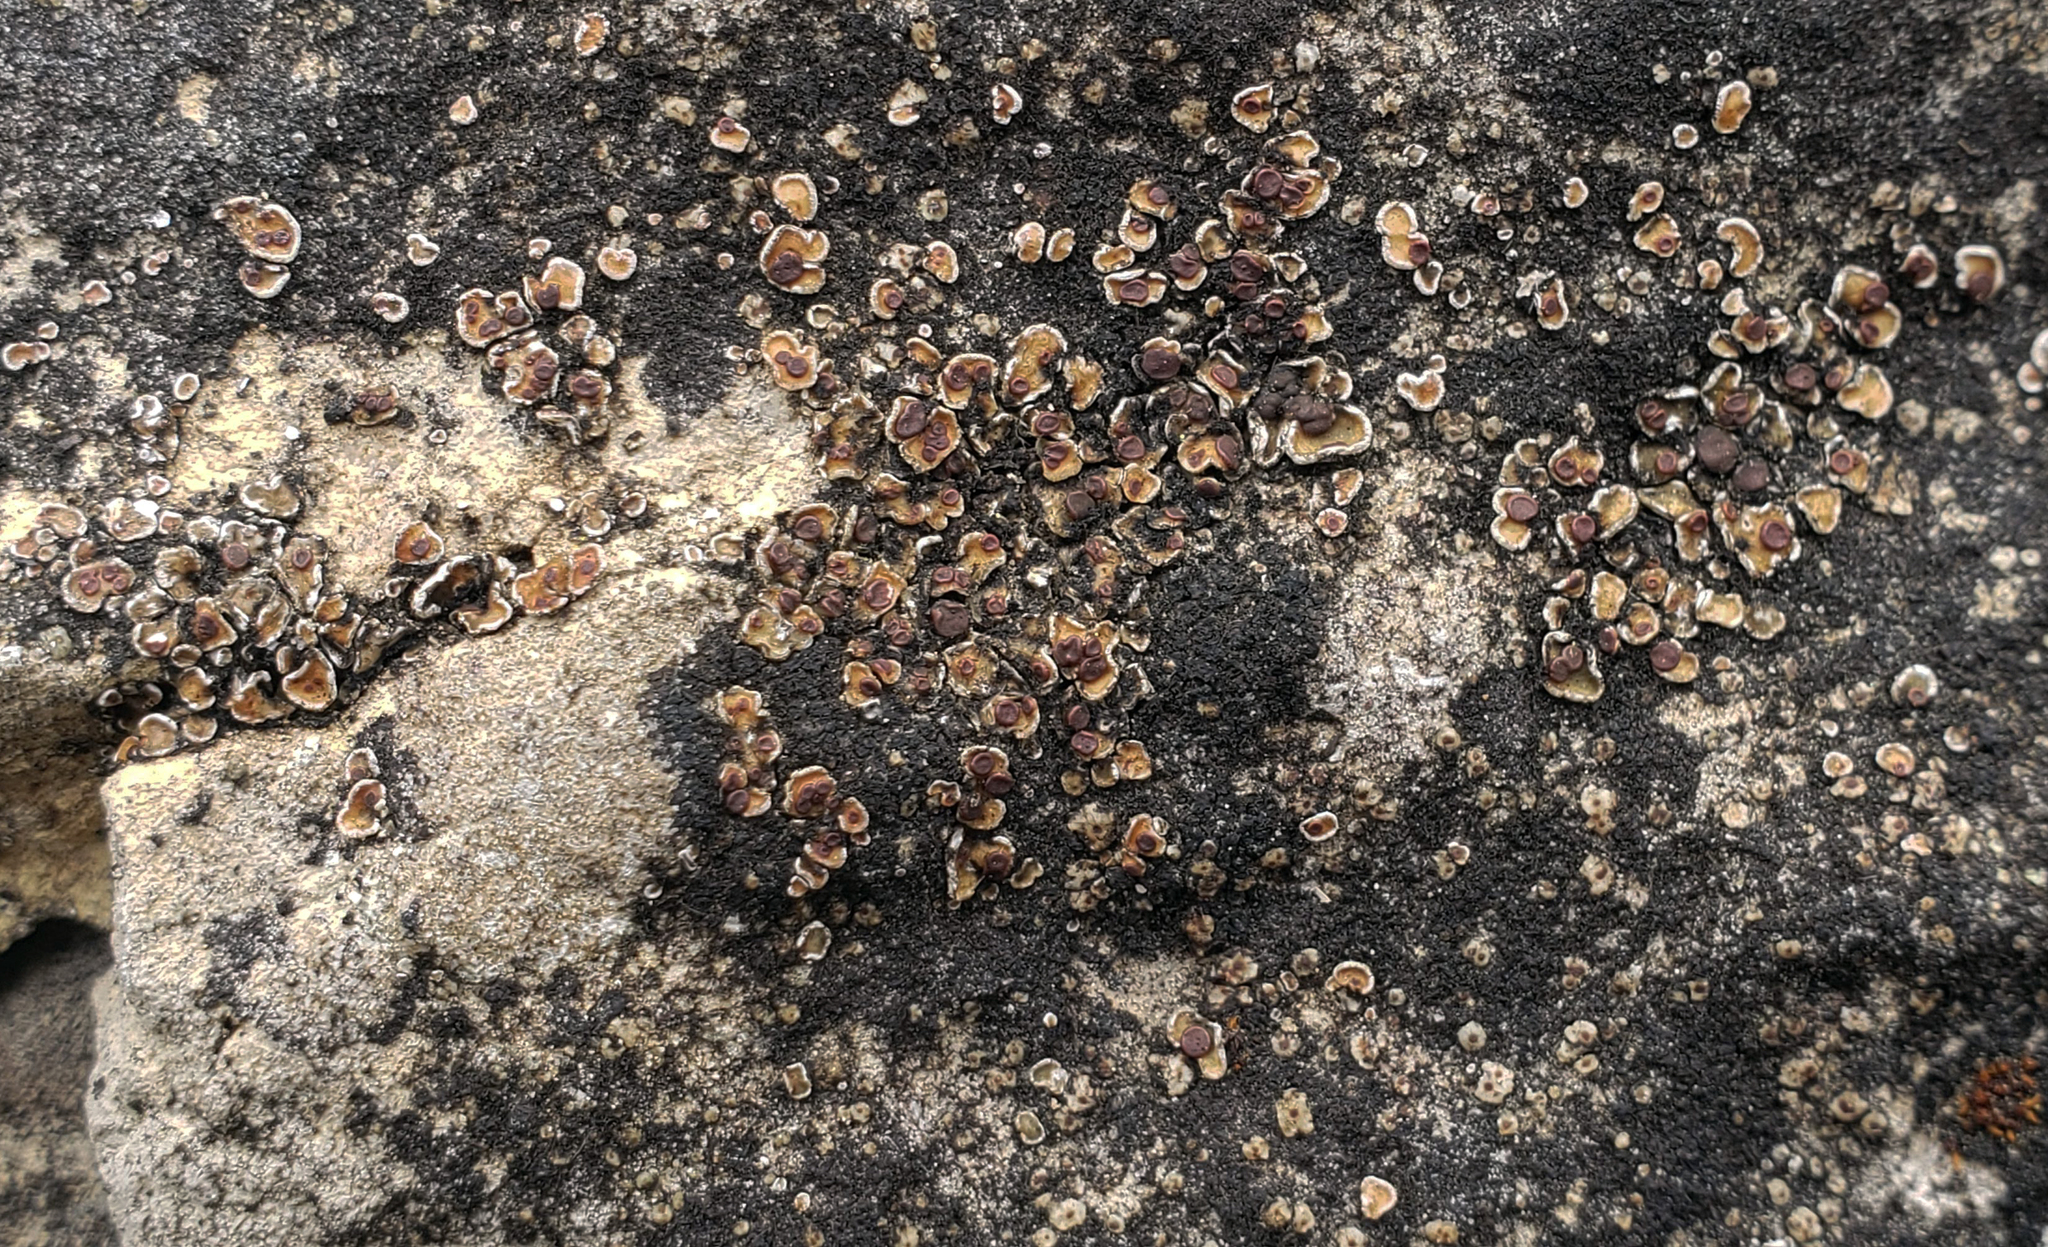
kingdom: Fungi
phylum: Ascomycota
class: Lecanoromycetes
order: Lecanorales
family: Psoraceae
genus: Psora
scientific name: Psora pseudorussellii
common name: Bordered scale lichen
